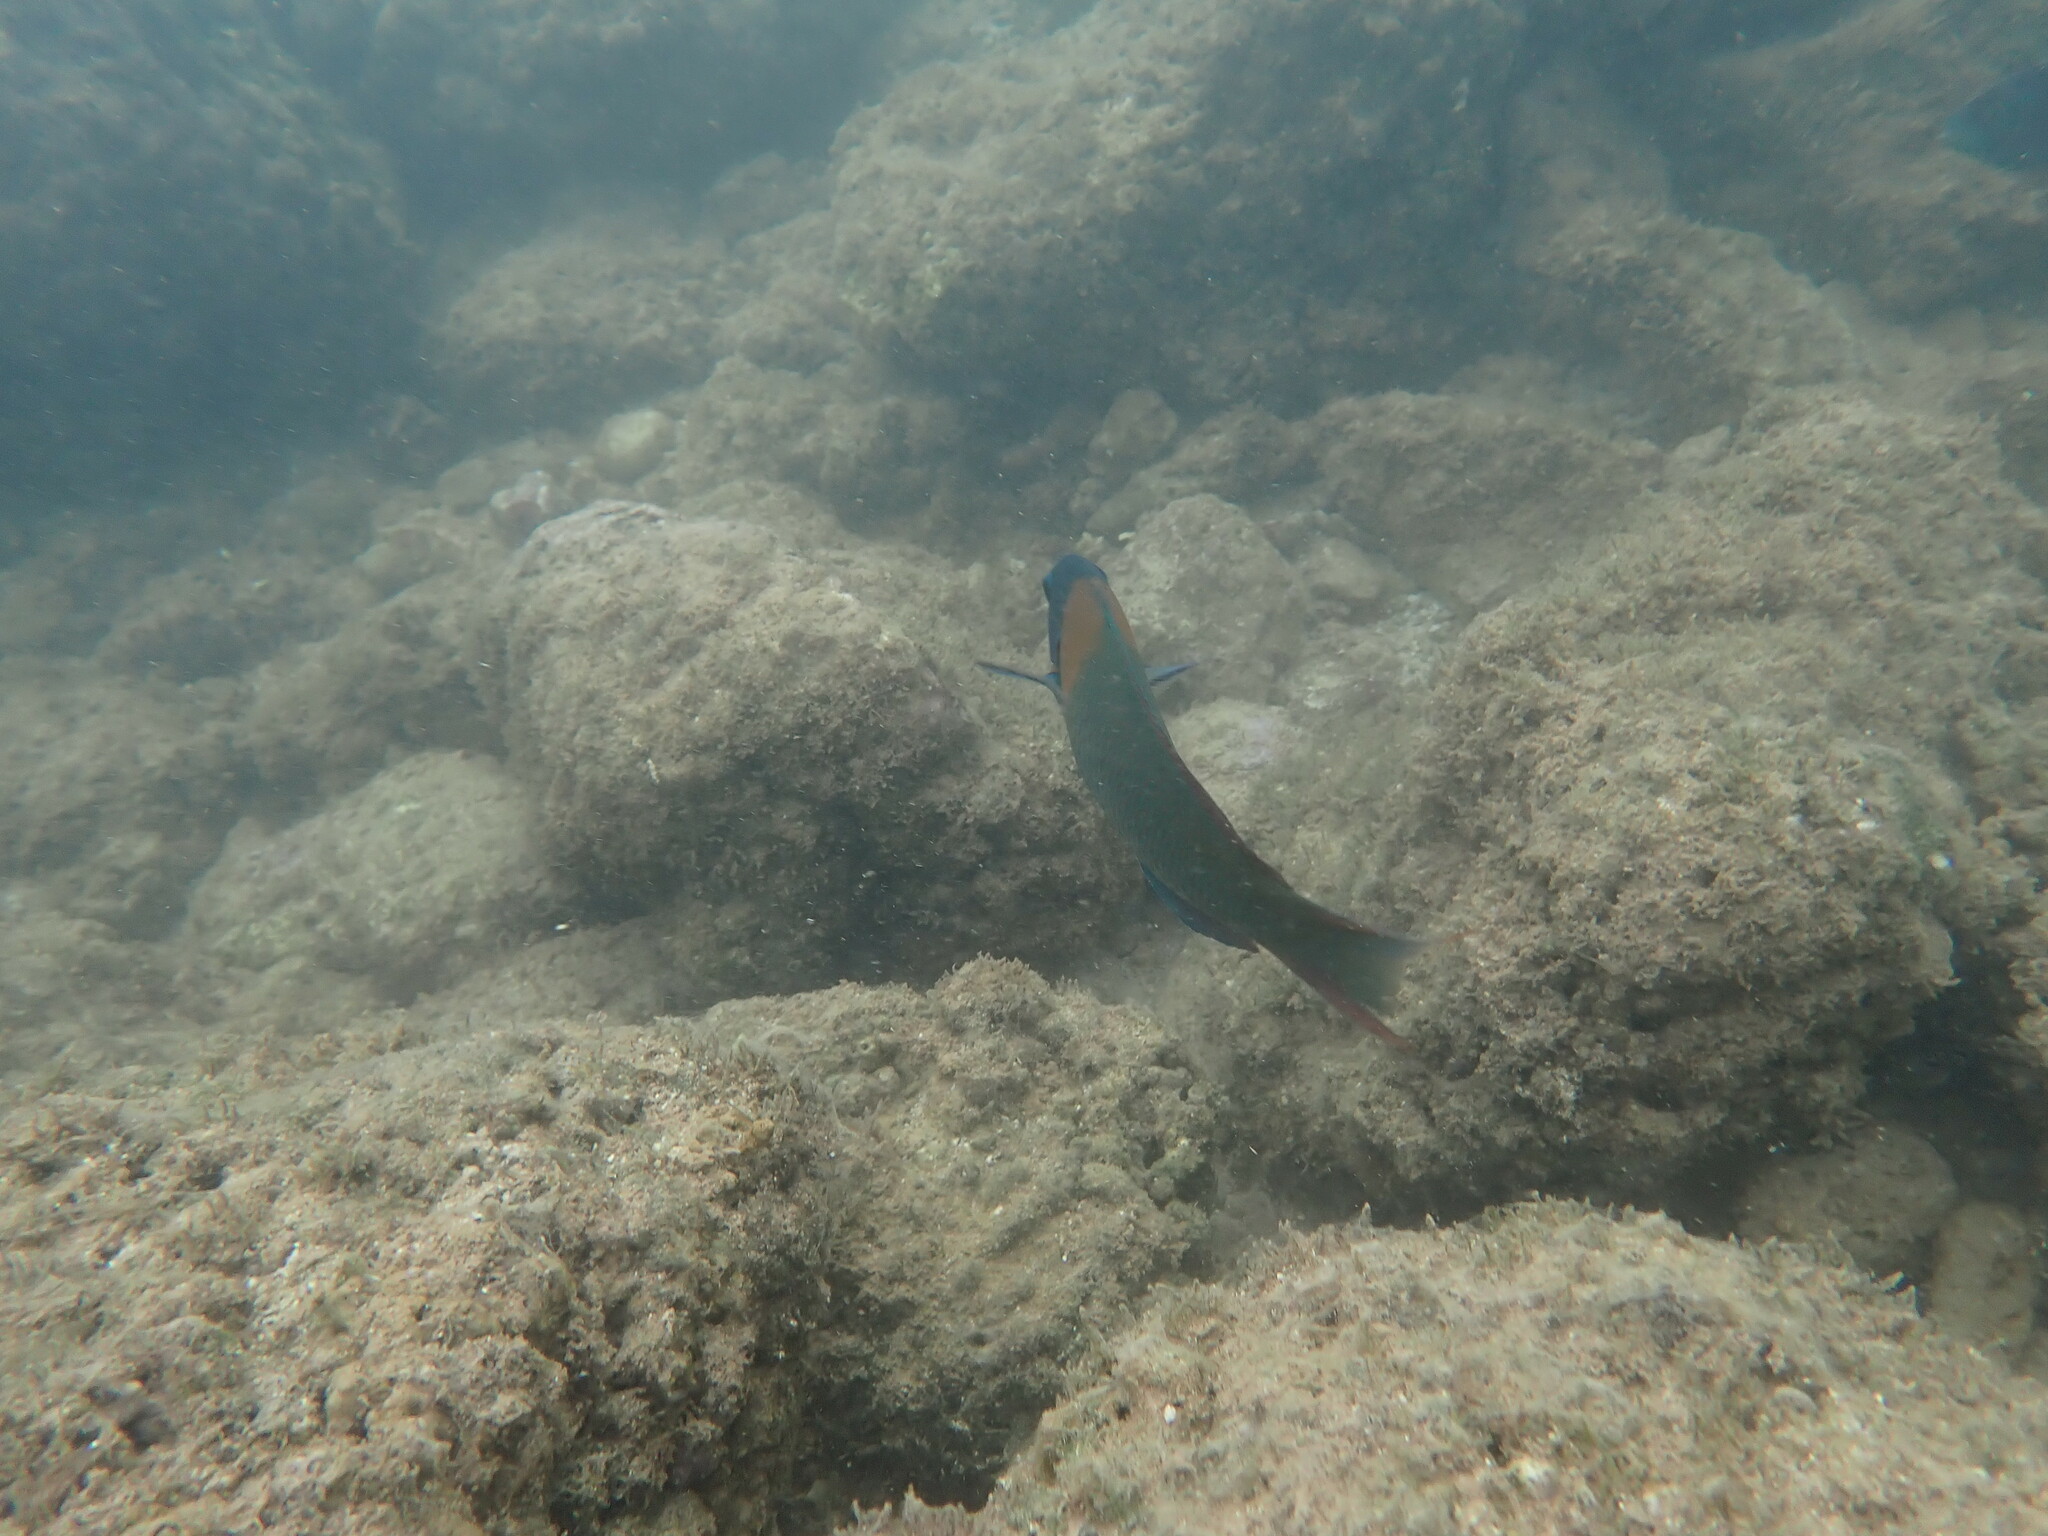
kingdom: Animalia
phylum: Chordata
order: Perciformes
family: Labridae
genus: Thalassoma
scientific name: Thalassoma duperrey
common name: Saddle wrasse
